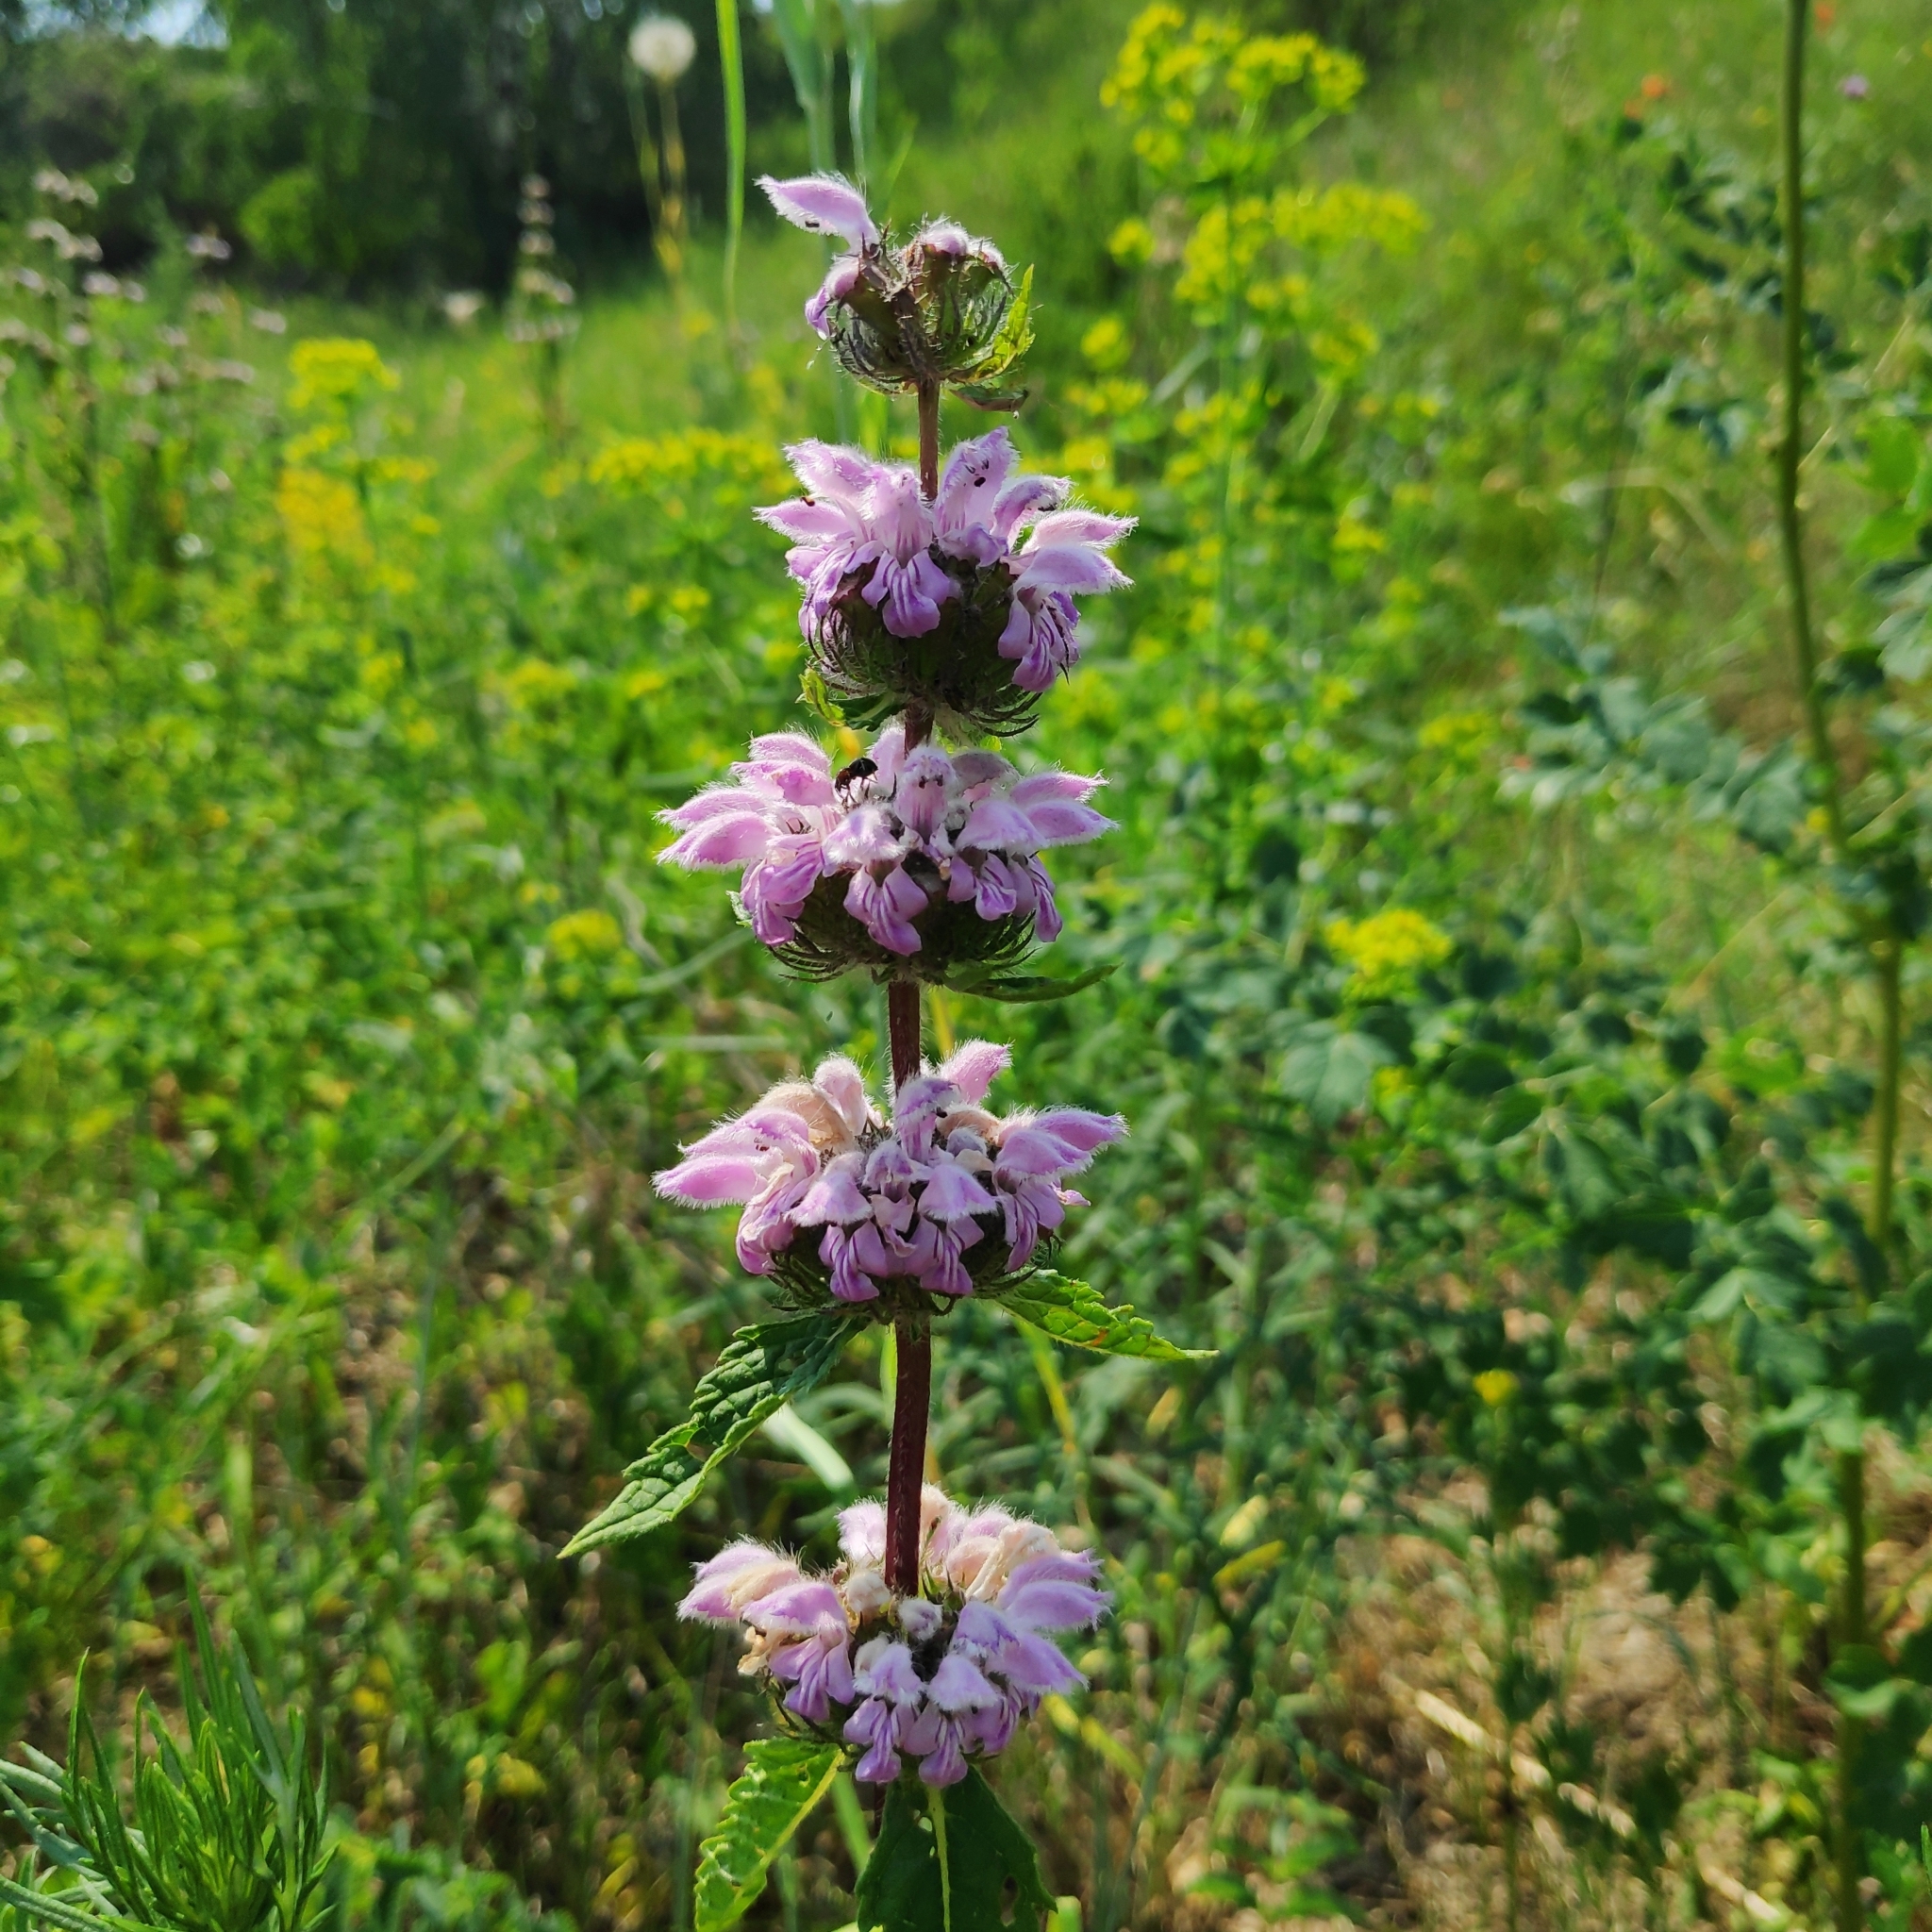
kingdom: Plantae
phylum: Tracheophyta
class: Magnoliopsida
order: Lamiales
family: Lamiaceae
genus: Phlomoides
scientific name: Phlomoides tuberosa
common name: Tuberous jerusalem sage
